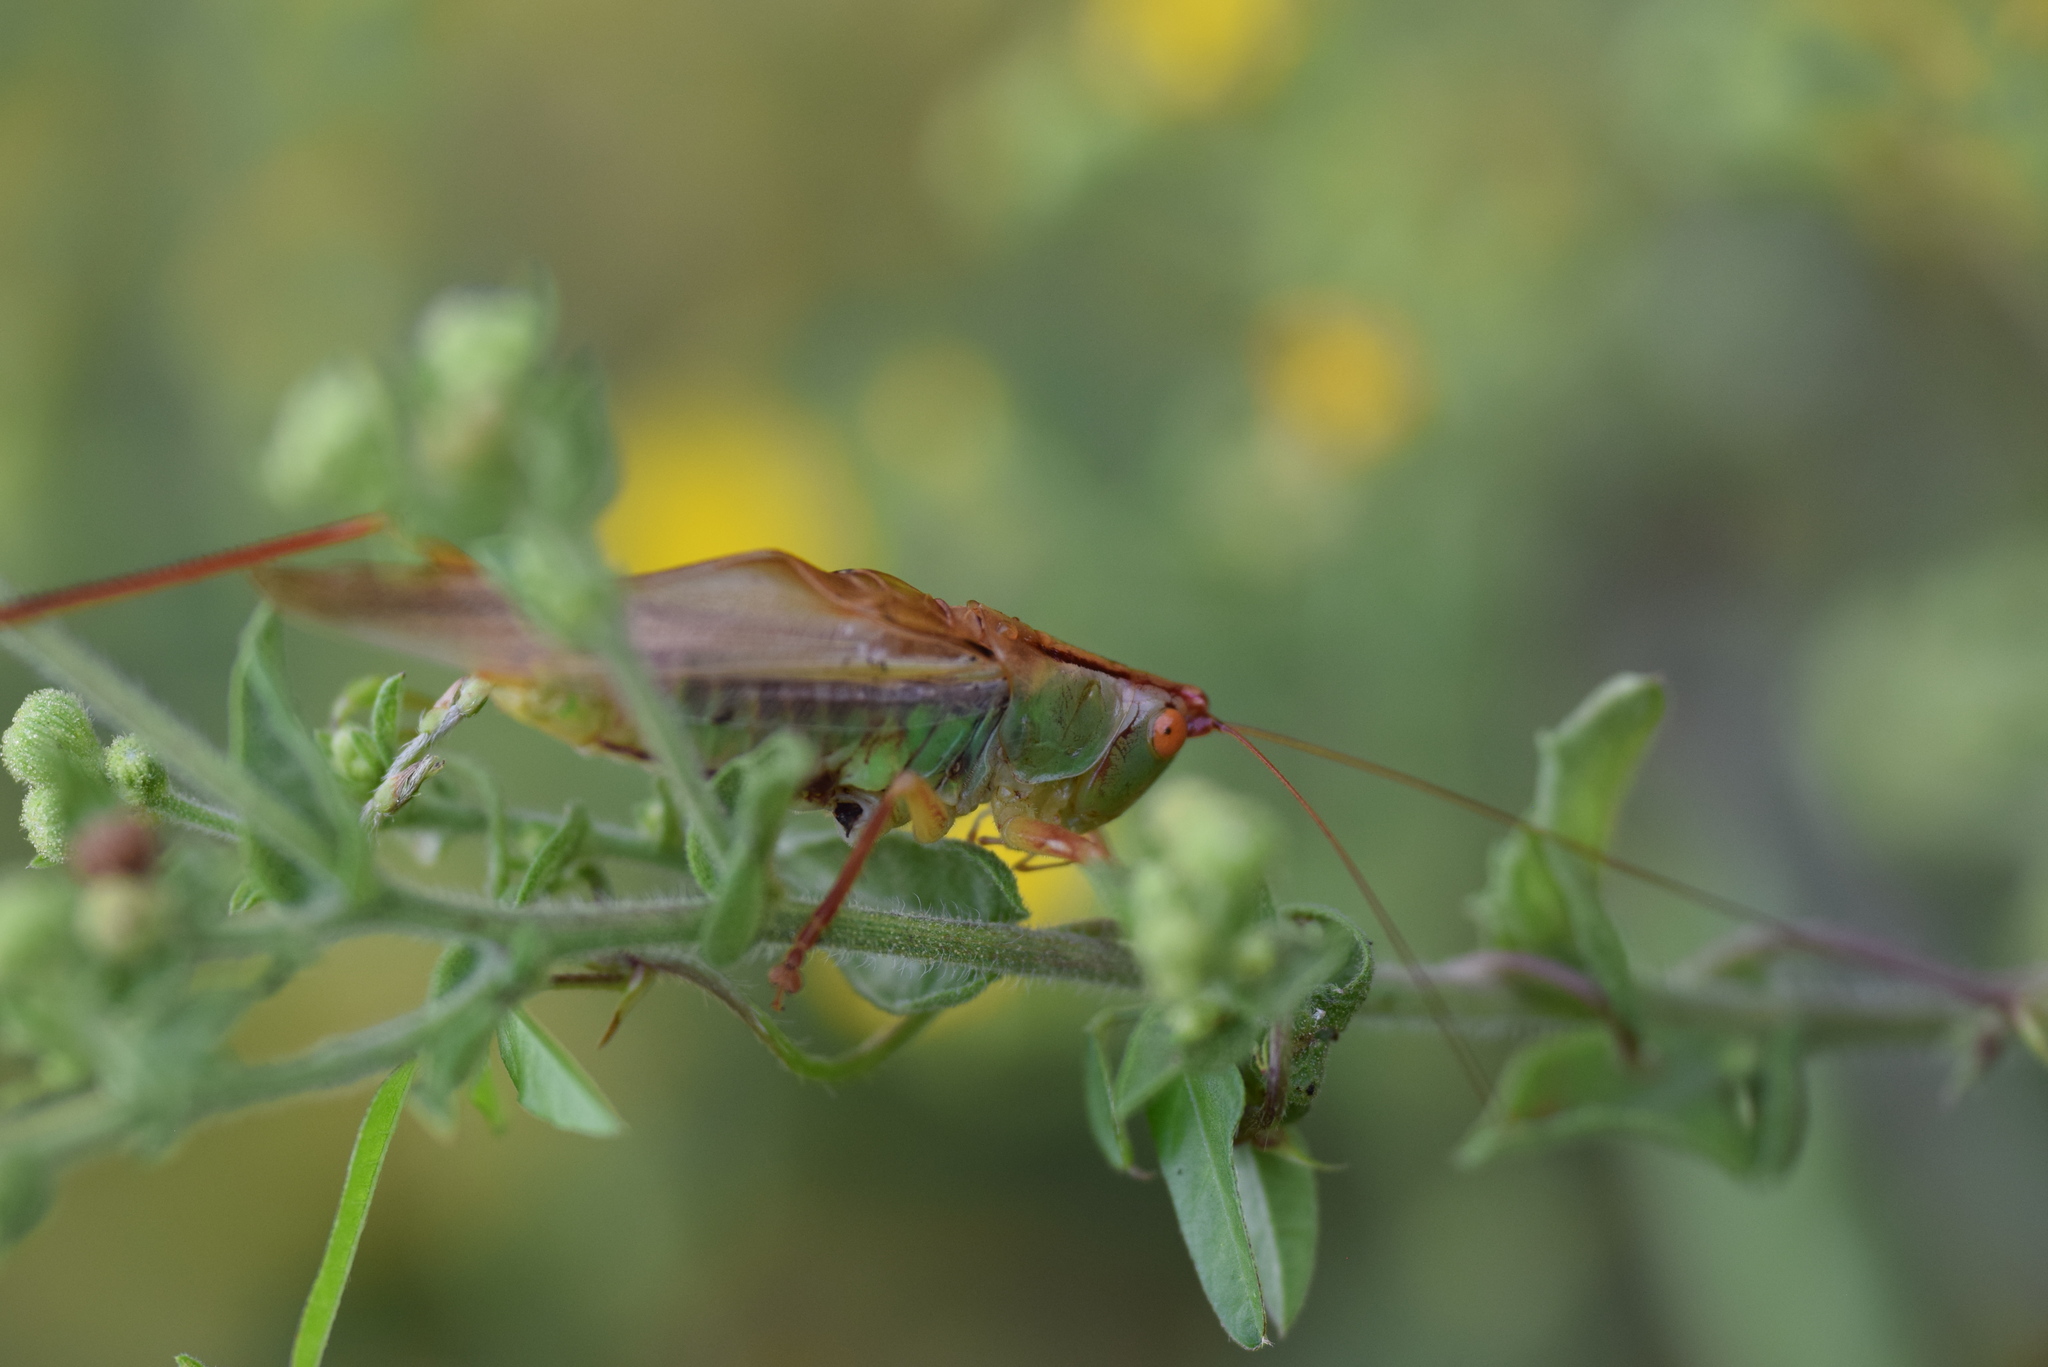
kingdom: Animalia
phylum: Arthropoda
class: Insecta
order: Orthoptera
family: Tettigoniidae
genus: Orchelimum
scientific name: Orchelimum vulgare
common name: Common meadow katydid
